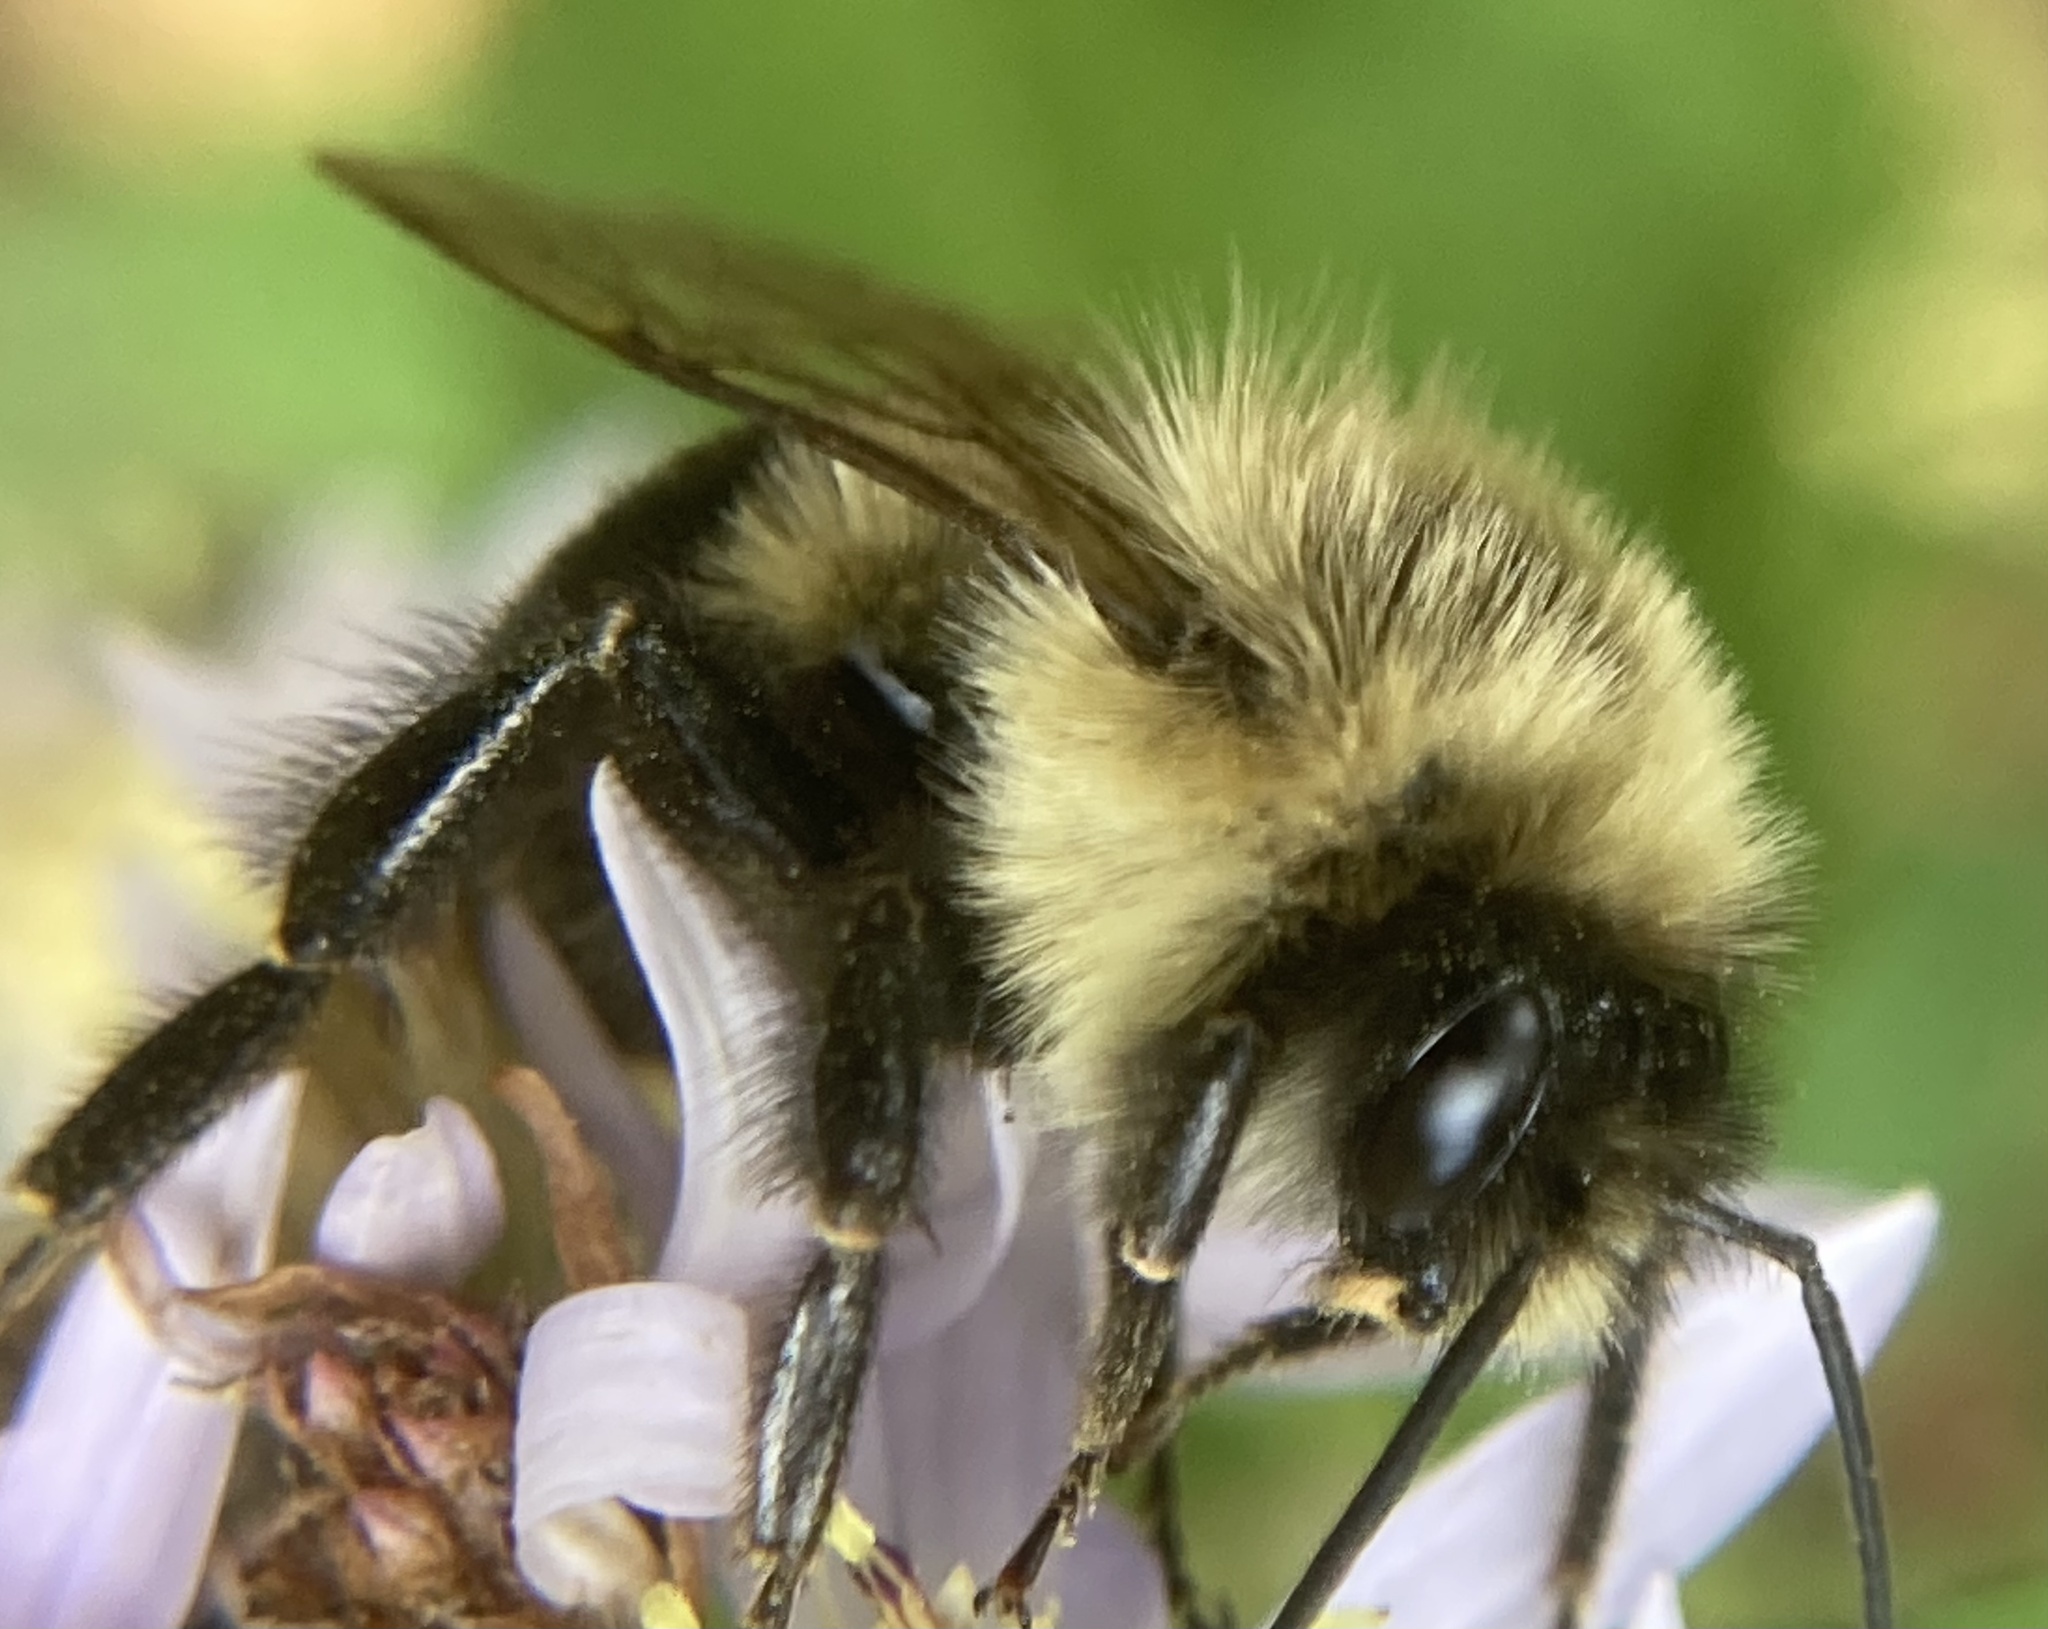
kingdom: Animalia
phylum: Arthropoda
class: Insecta
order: Hymenoptera
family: Apidae
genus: Bombus
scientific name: Bombus impatiens
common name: Common eastern bumble bee
